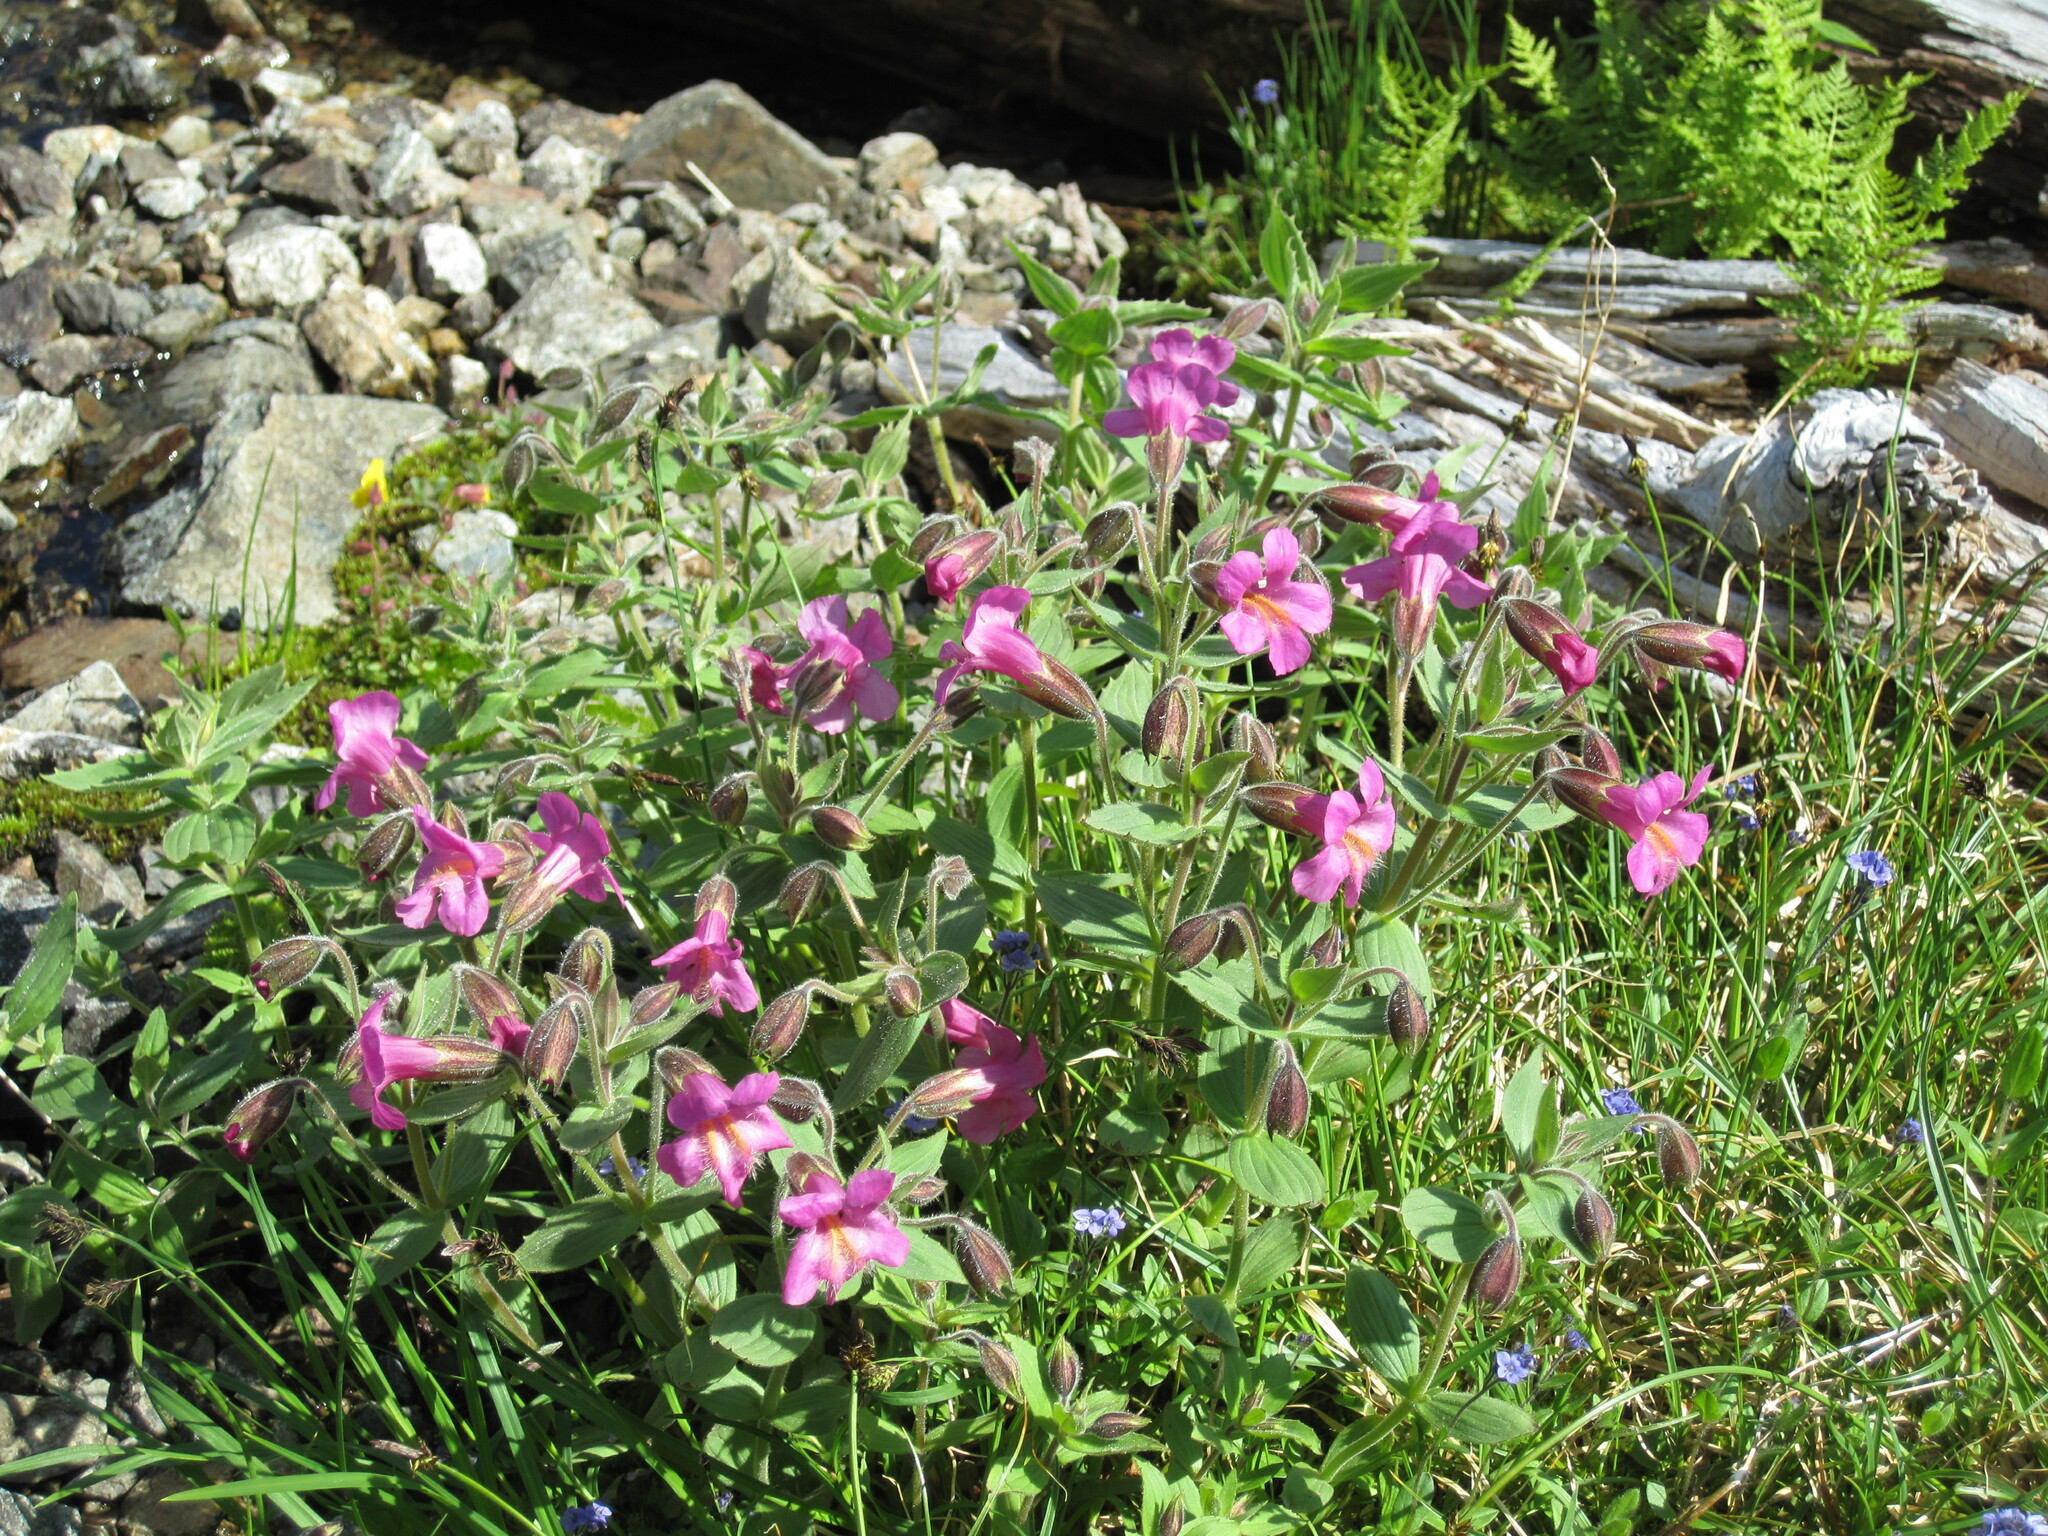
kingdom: Plantae
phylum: Tracheophyta
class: Magnoliopsida
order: Lamiales
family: Phrymaceae
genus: Erythranthe
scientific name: Erythranthe lewisii
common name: Lewis's monkey-flower
